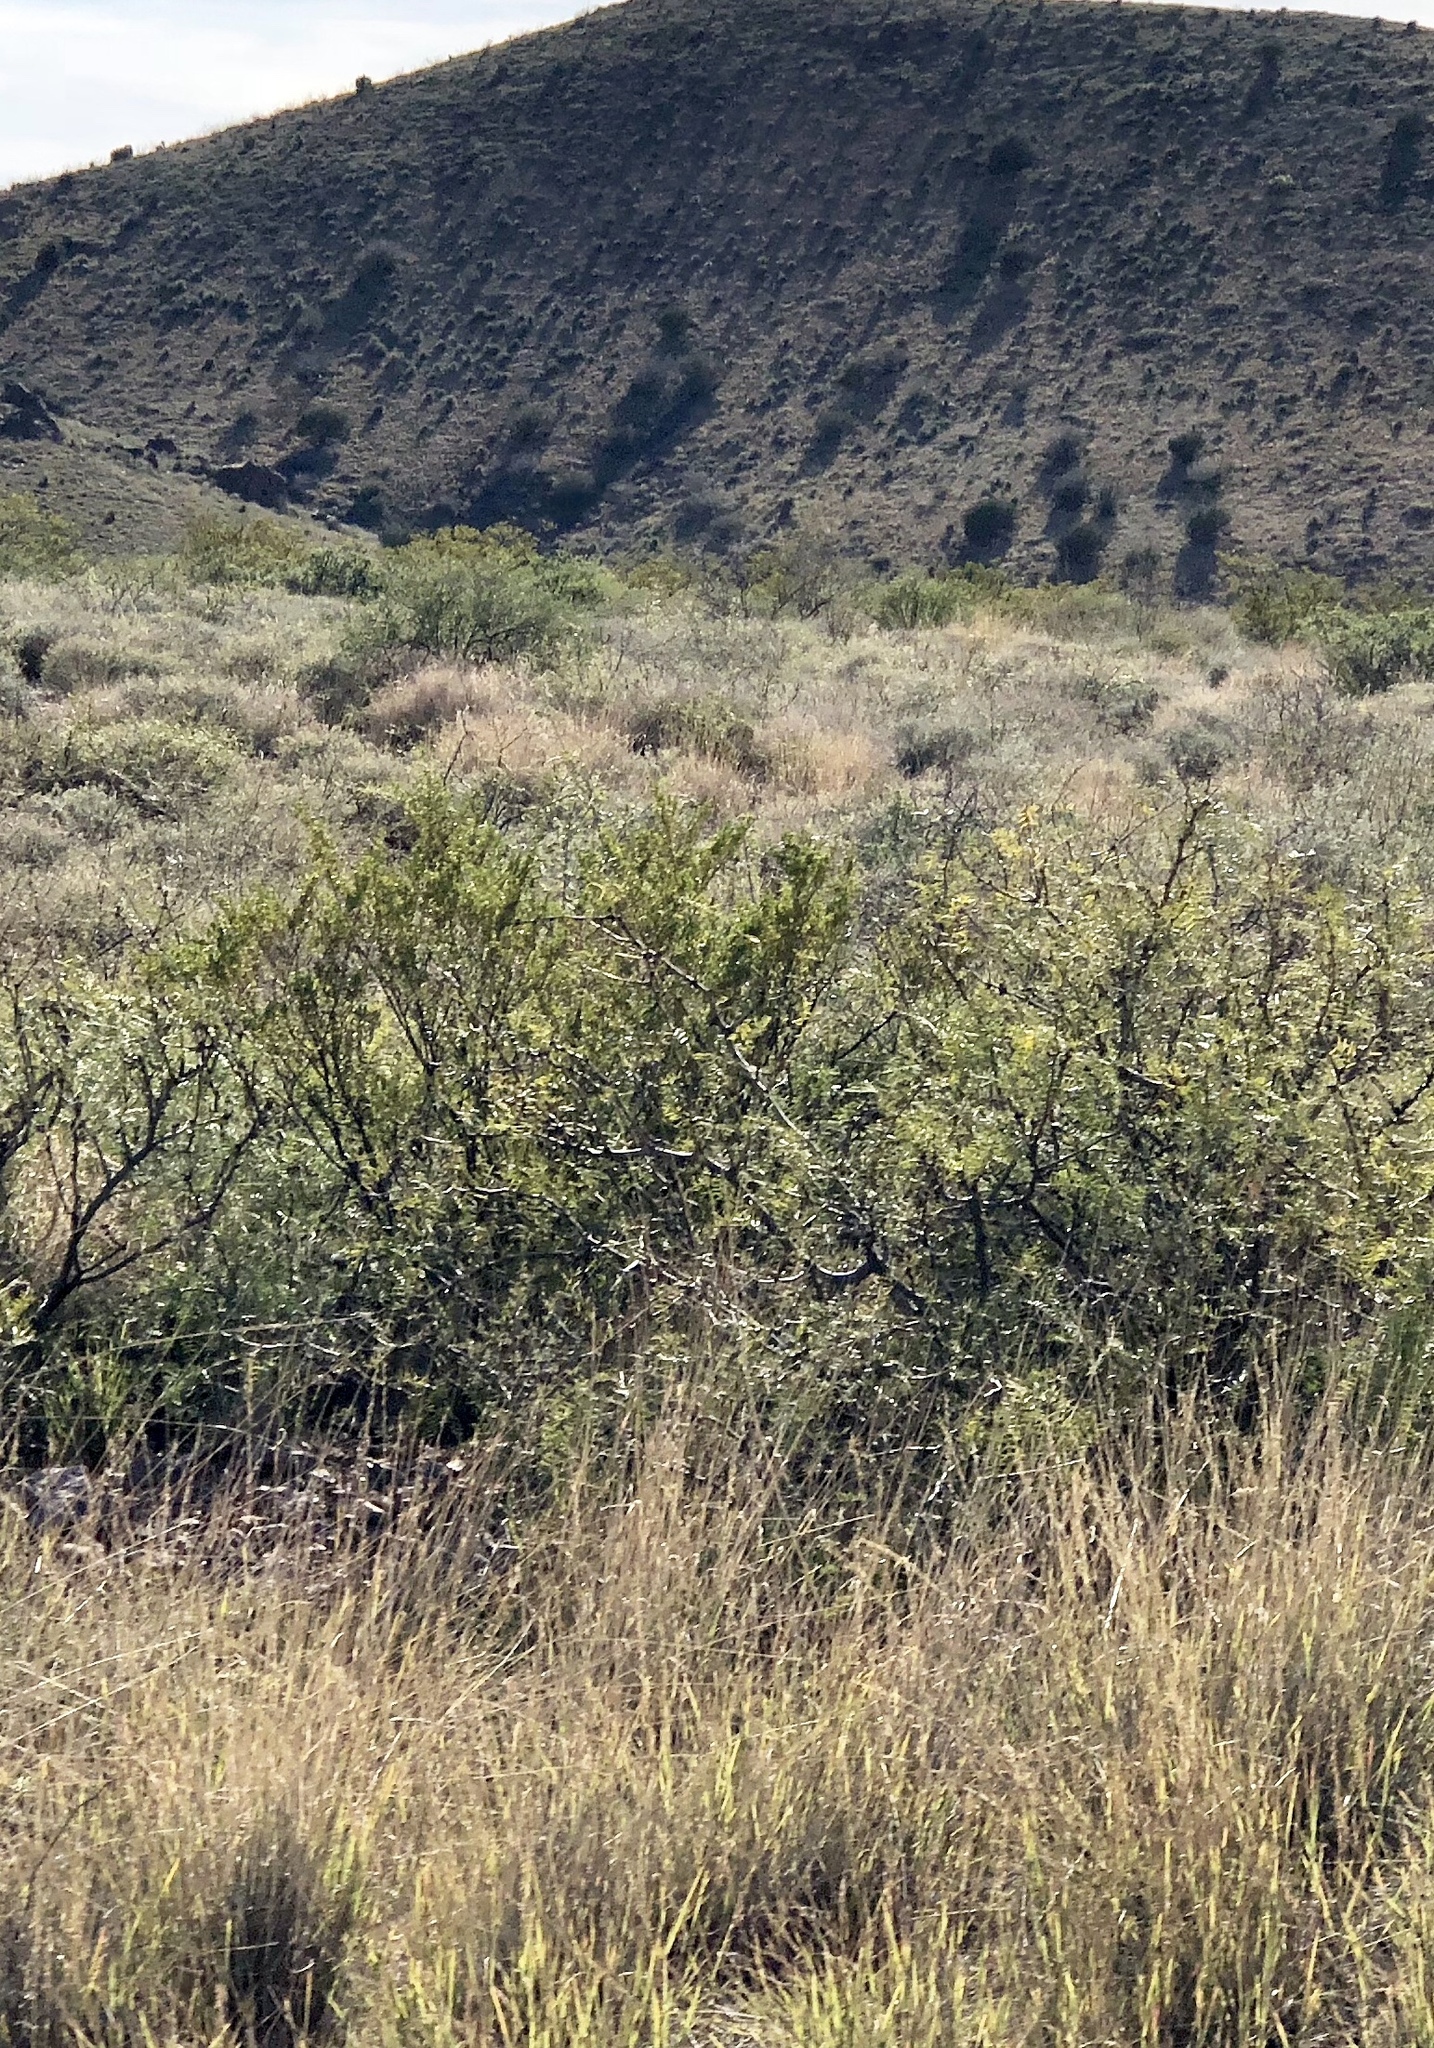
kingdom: Plantae
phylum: Tracheophyta
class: Magnoliopsida
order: Fabales
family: Fabaceae
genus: Prosopis
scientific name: Prosopis glandulosa
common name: Honey mesquite
